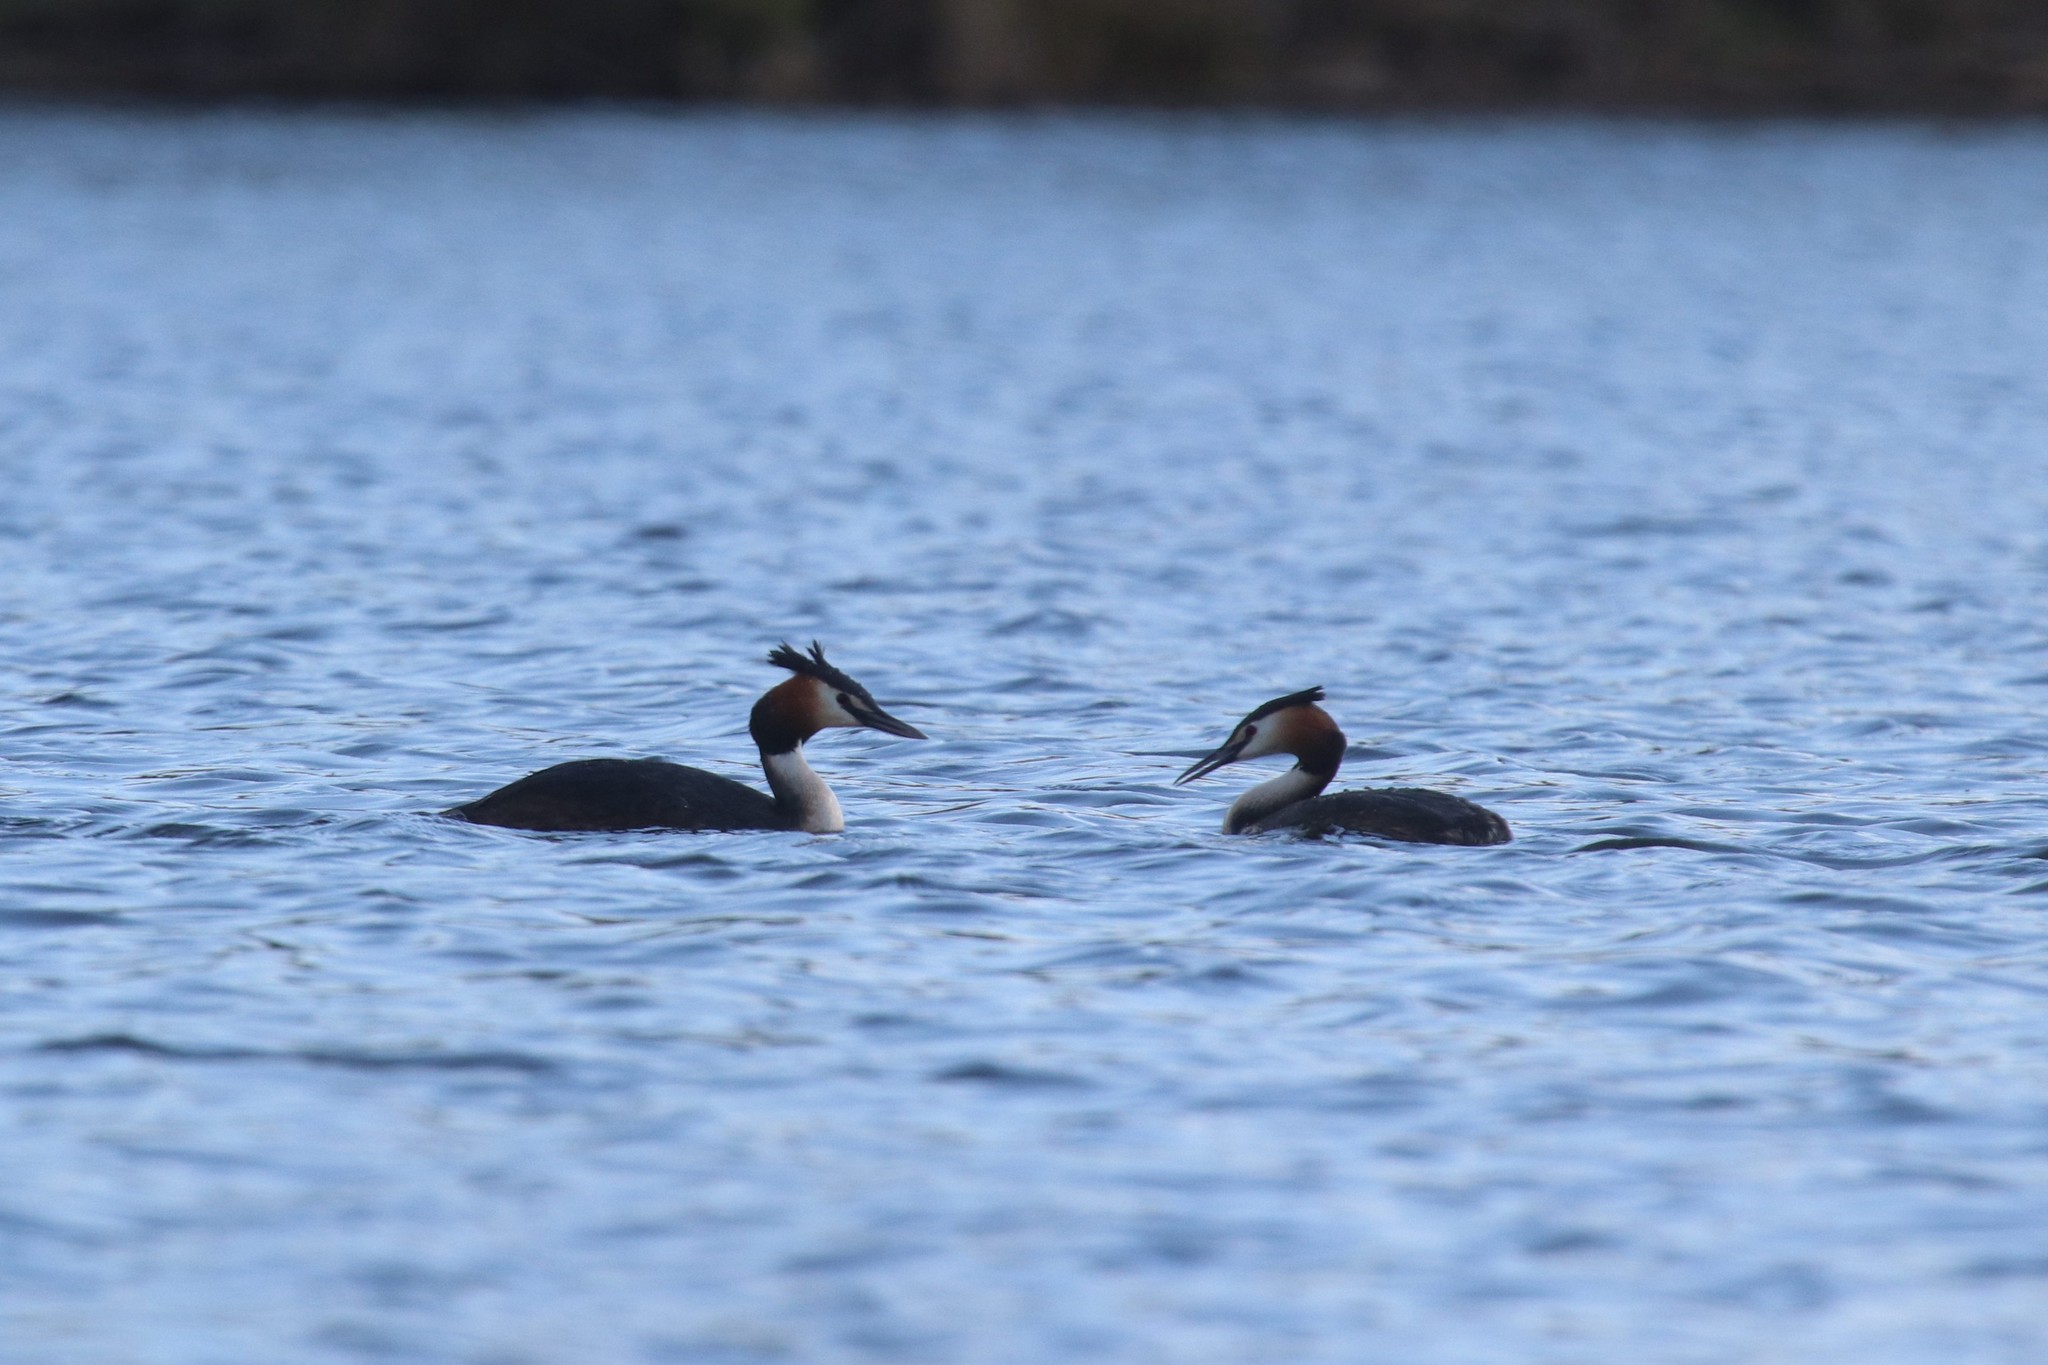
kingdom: Animalia
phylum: Chordata
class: Aves
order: Podicipediformes
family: Podicipedidae
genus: Podiceps
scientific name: Podiceps cristatus
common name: Great crested grebe
